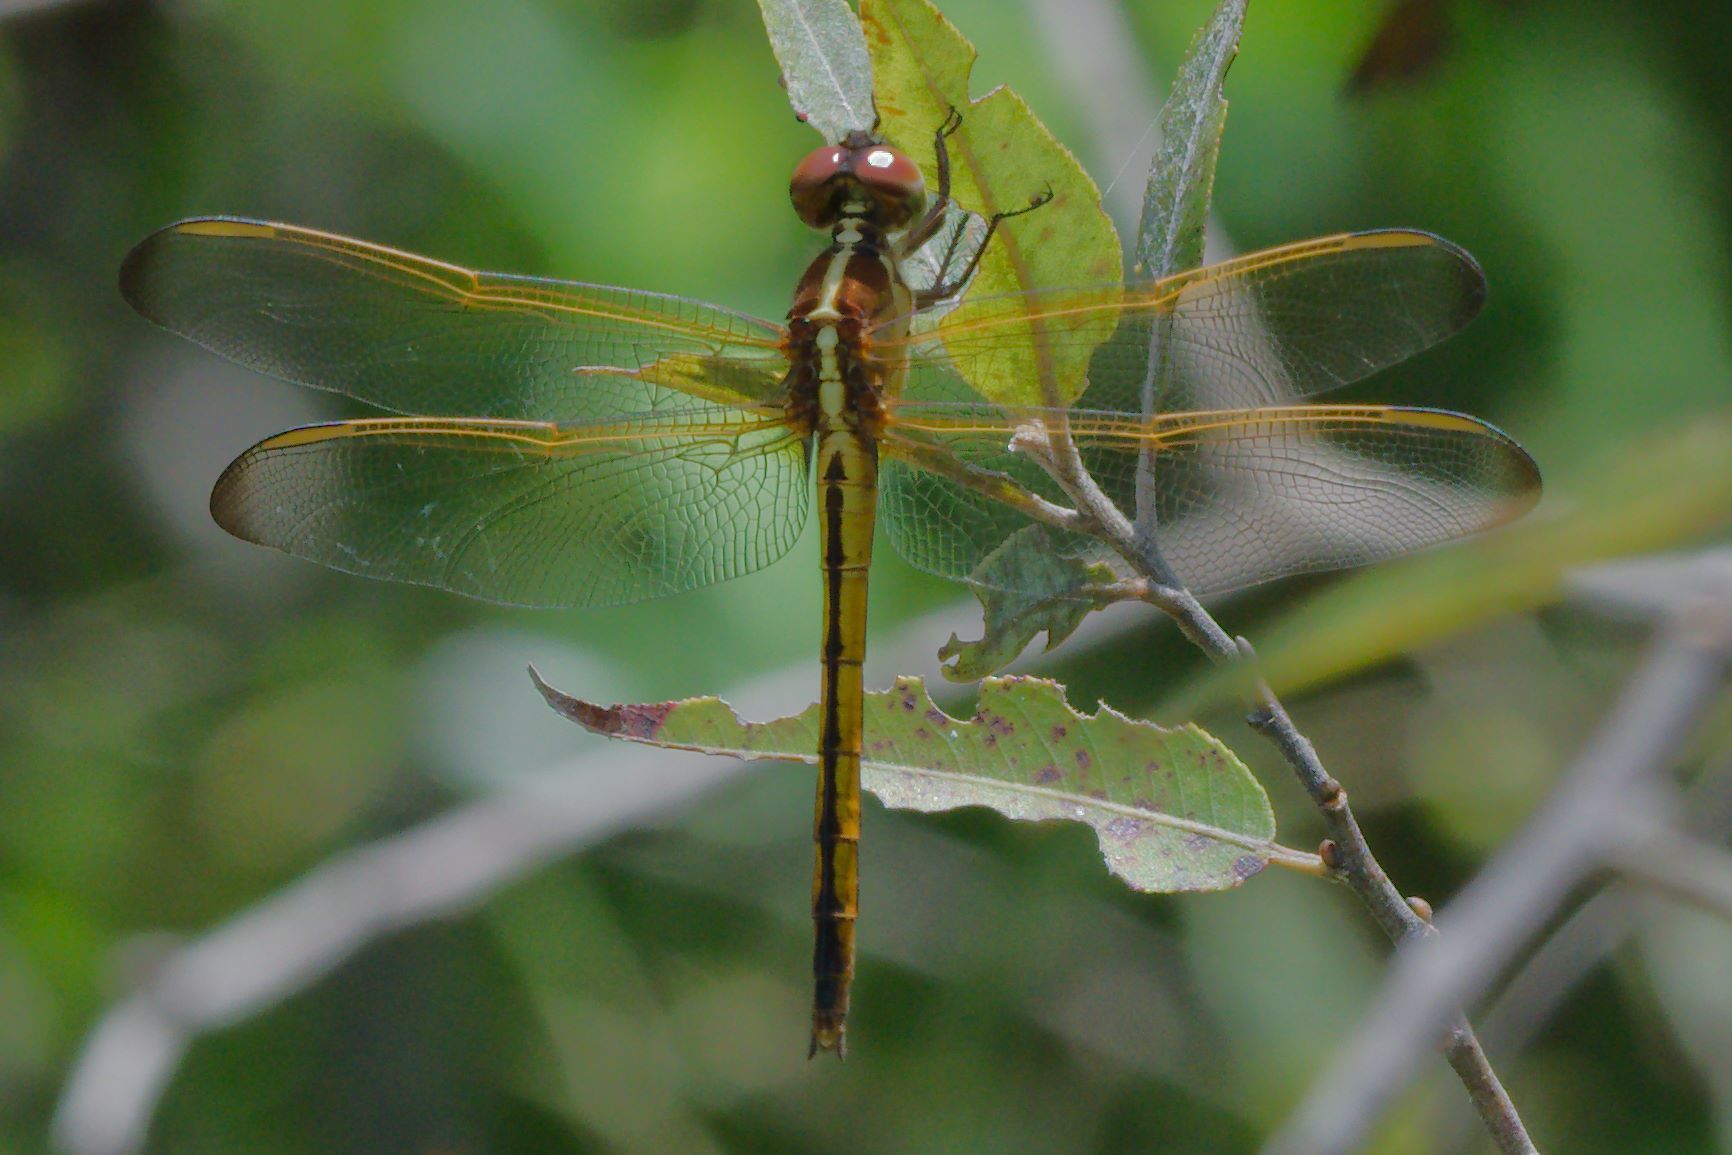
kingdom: Animalia
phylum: Arthropoda
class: Insecta
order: Odonata
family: Libellulidae
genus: Libellula
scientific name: Libellula needhami
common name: Needham's skimmer
